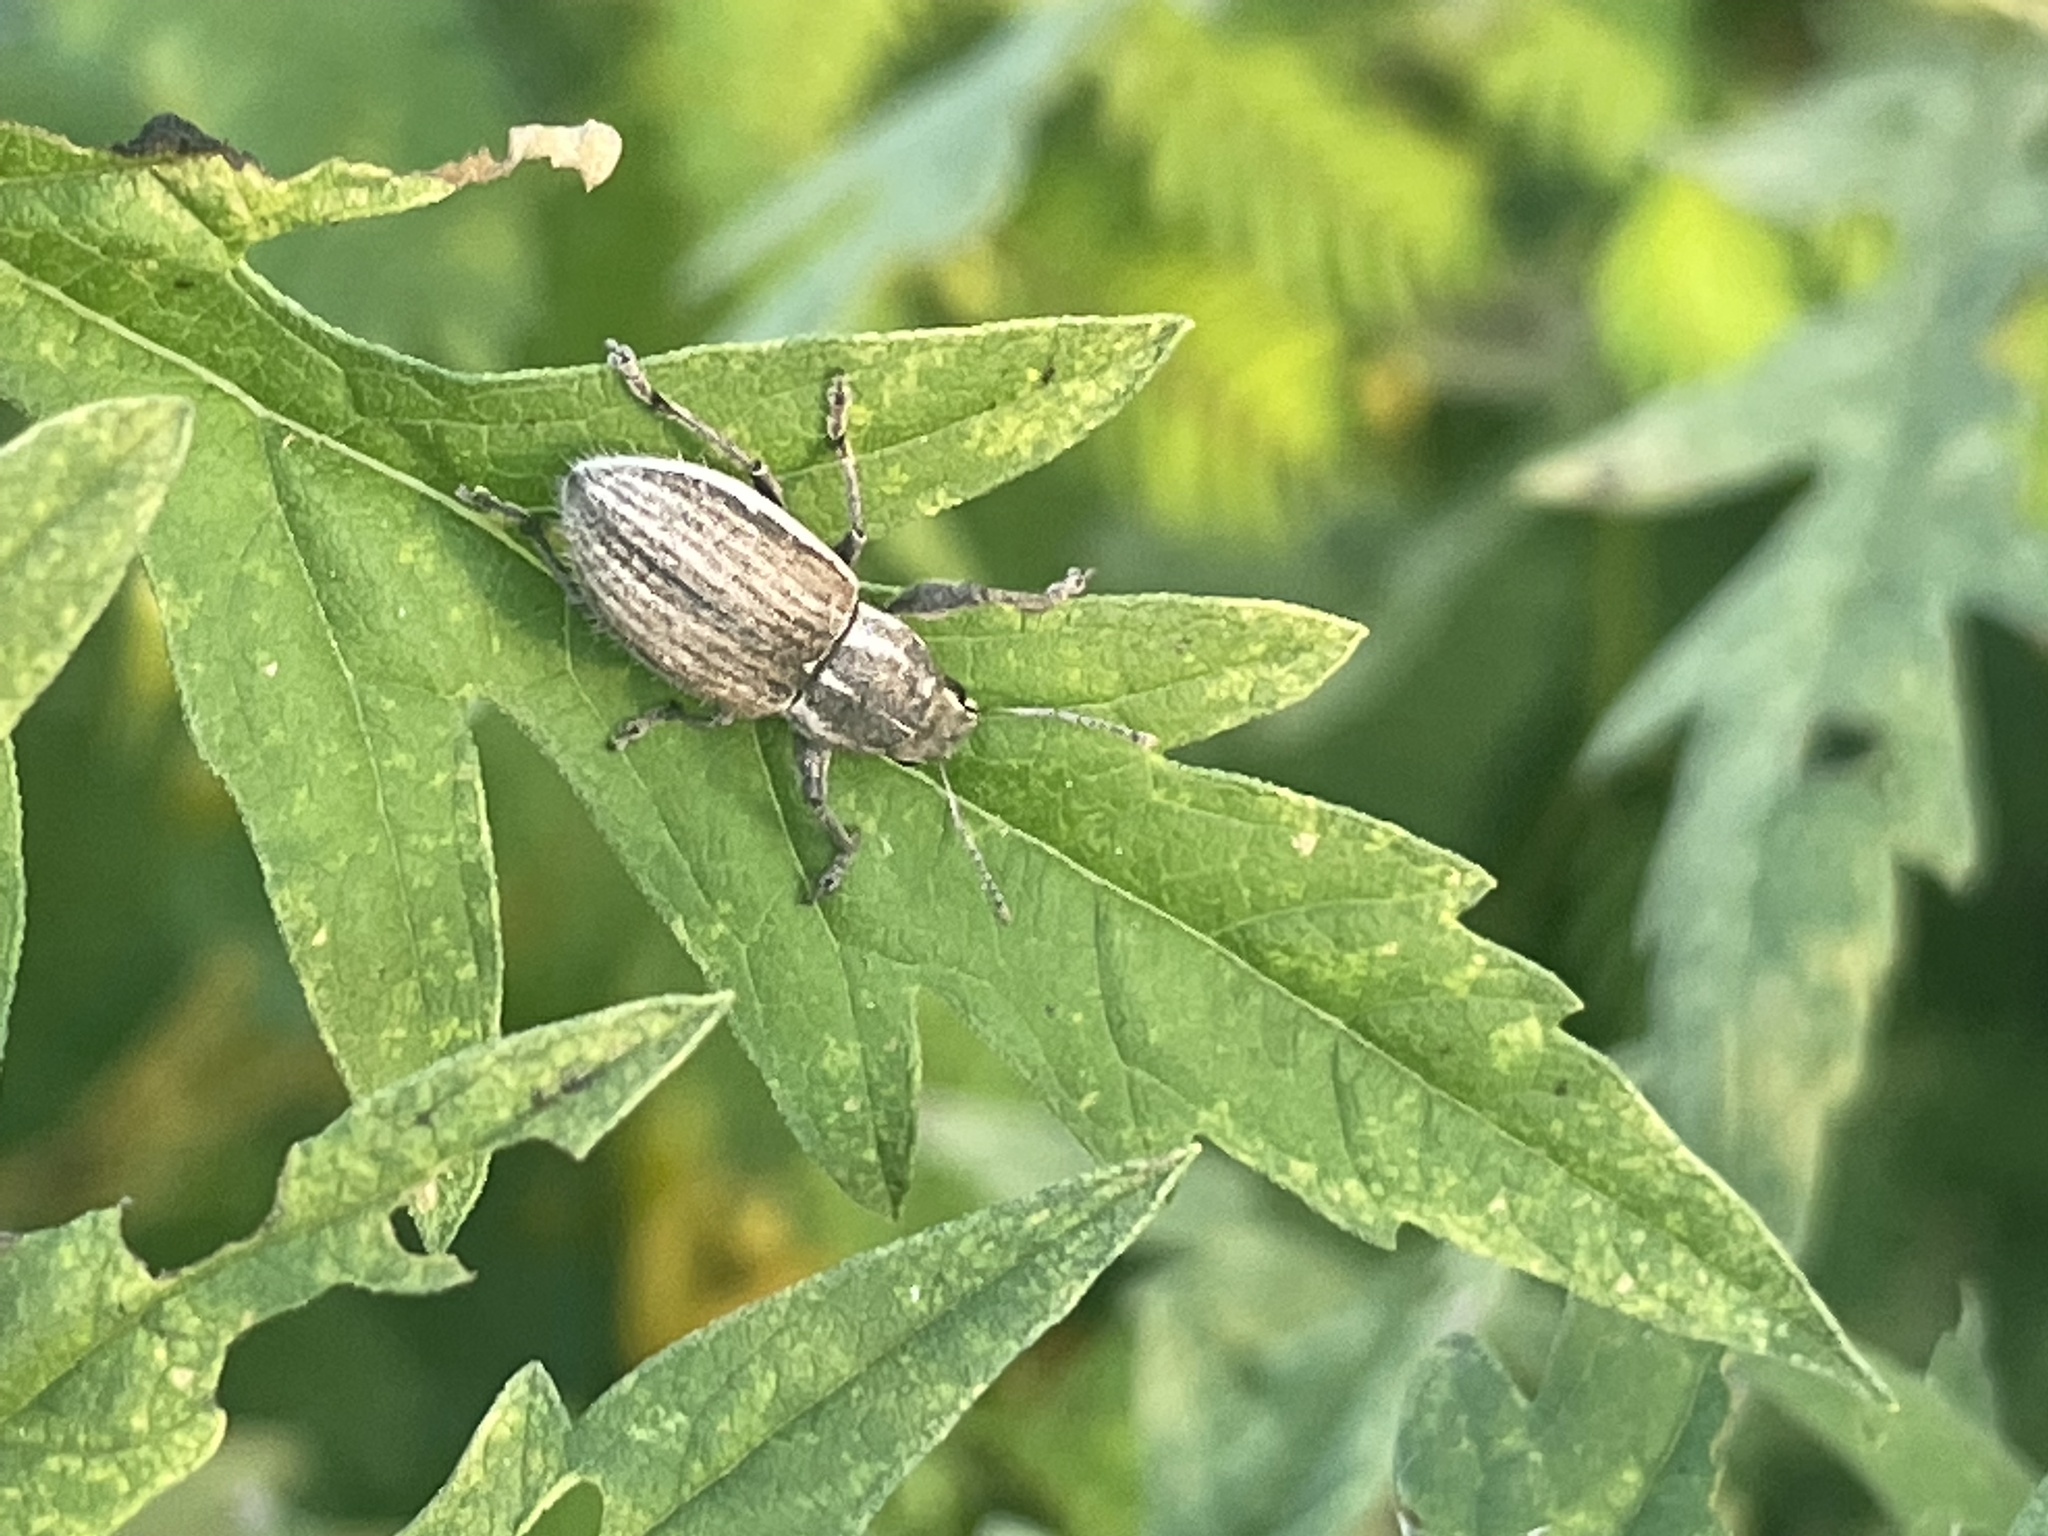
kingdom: Animalia
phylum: Arthropoda
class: Insecta
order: Coleoptera
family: Curculionidae
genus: Naupactus
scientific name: Naupactus leucoloma
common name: Whitefringed beetle
